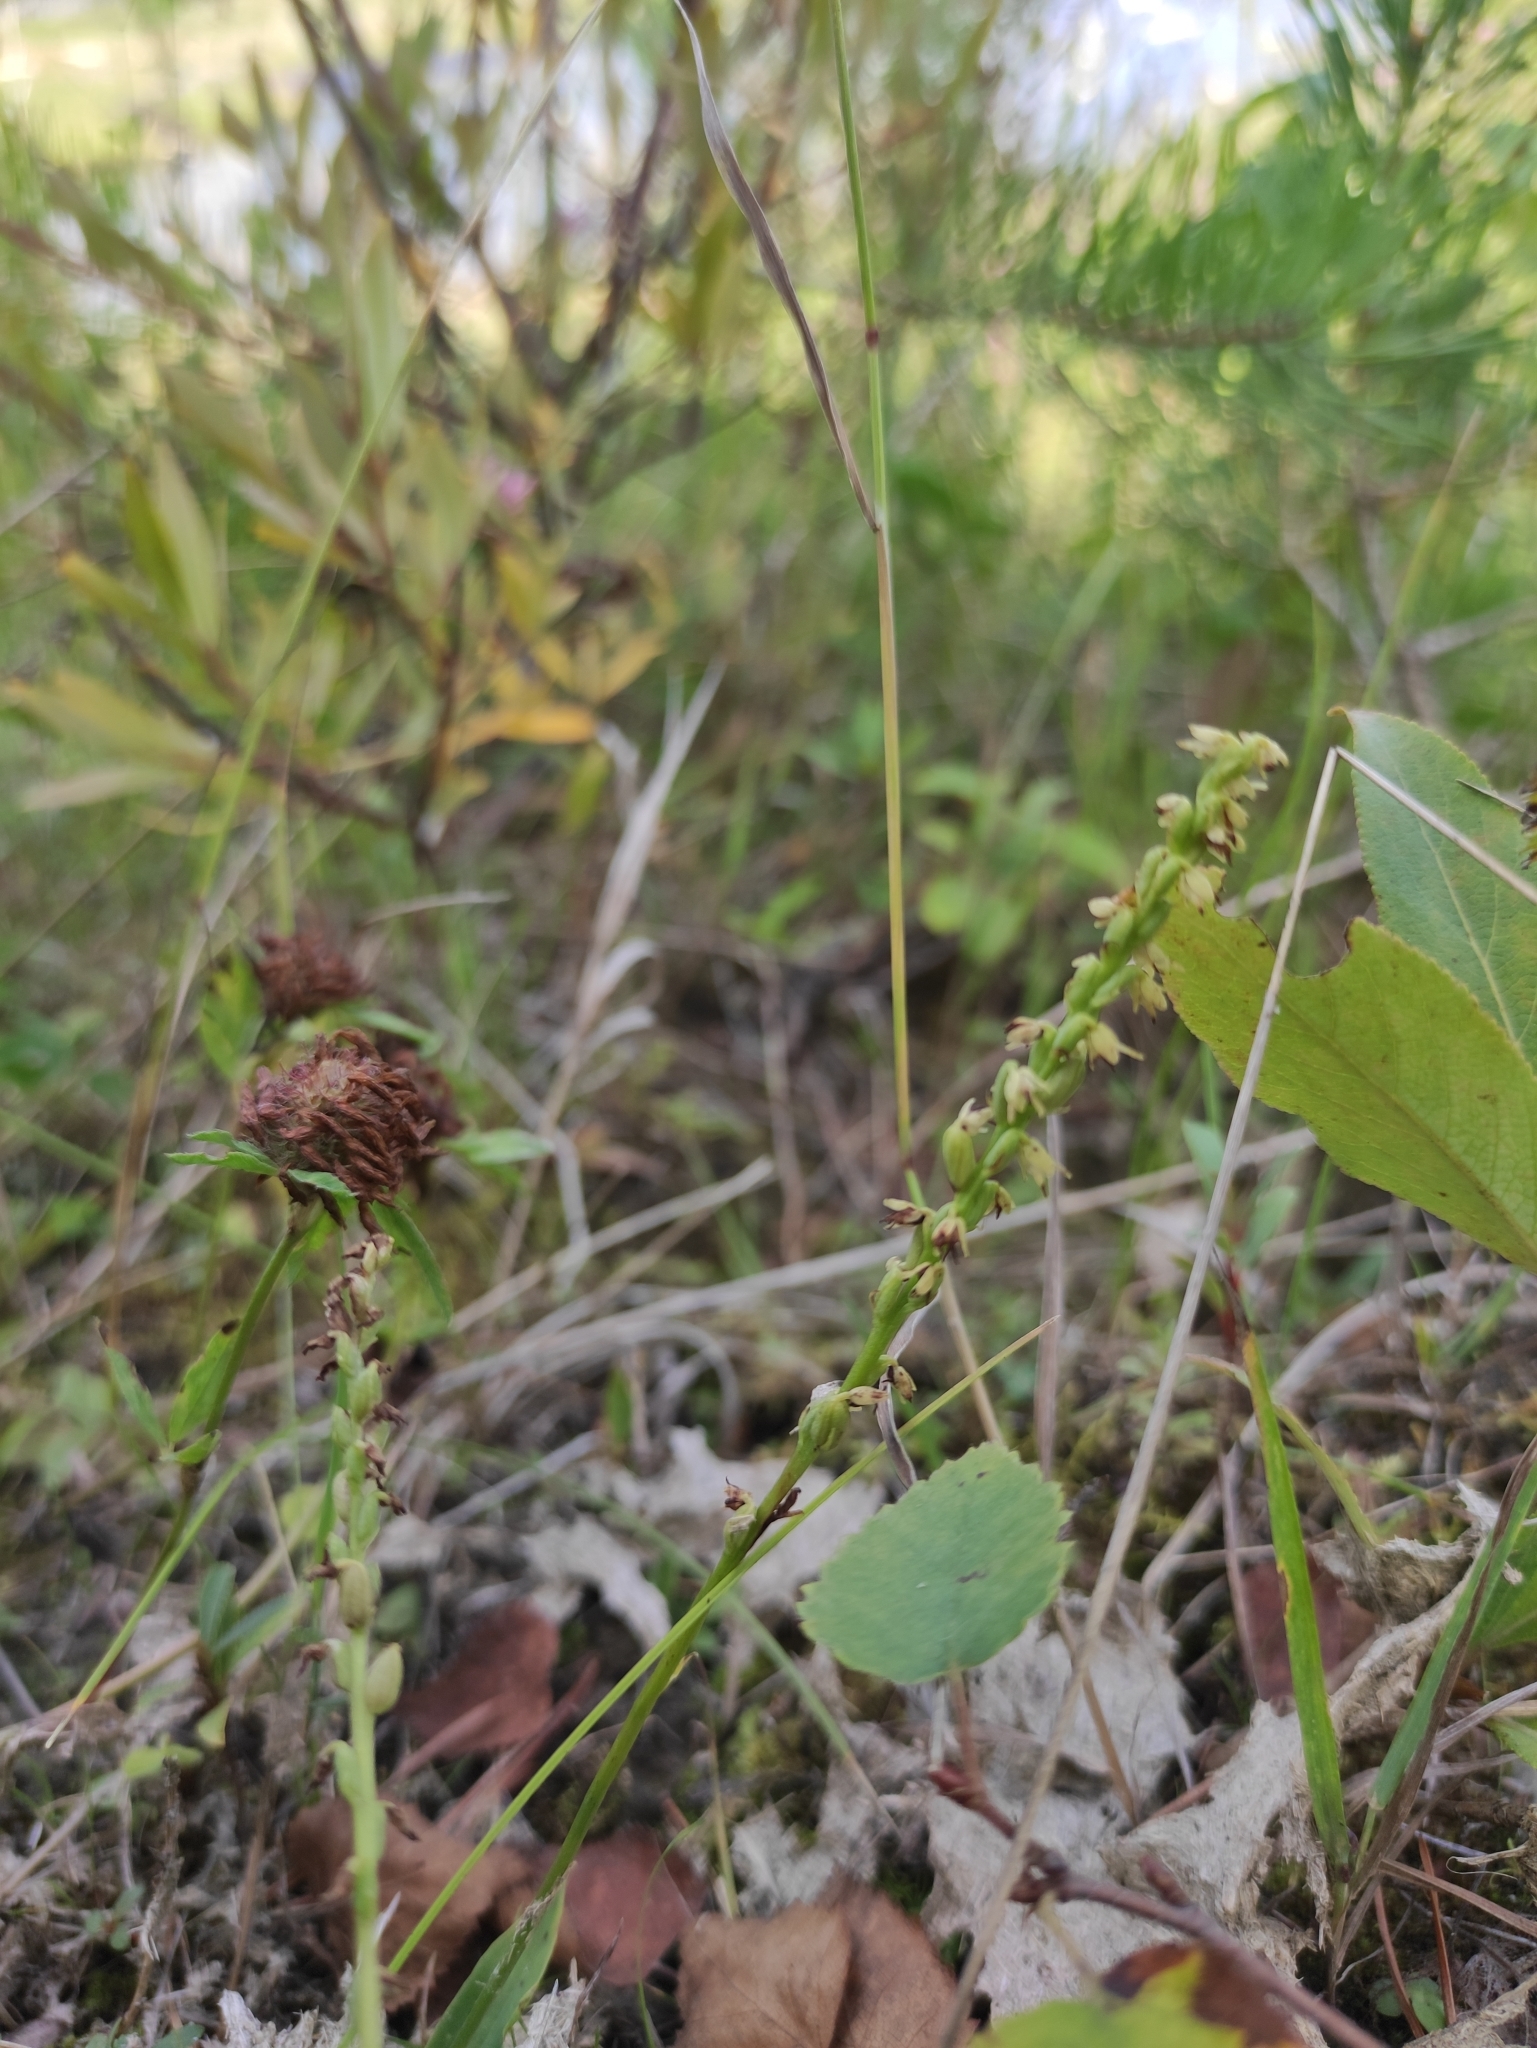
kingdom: Plantae
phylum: Tracheophyta
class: Liliopsida
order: Asparagales
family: Orchidaceae
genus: Herminium
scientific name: Herminium monorchis
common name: Musk orchid
